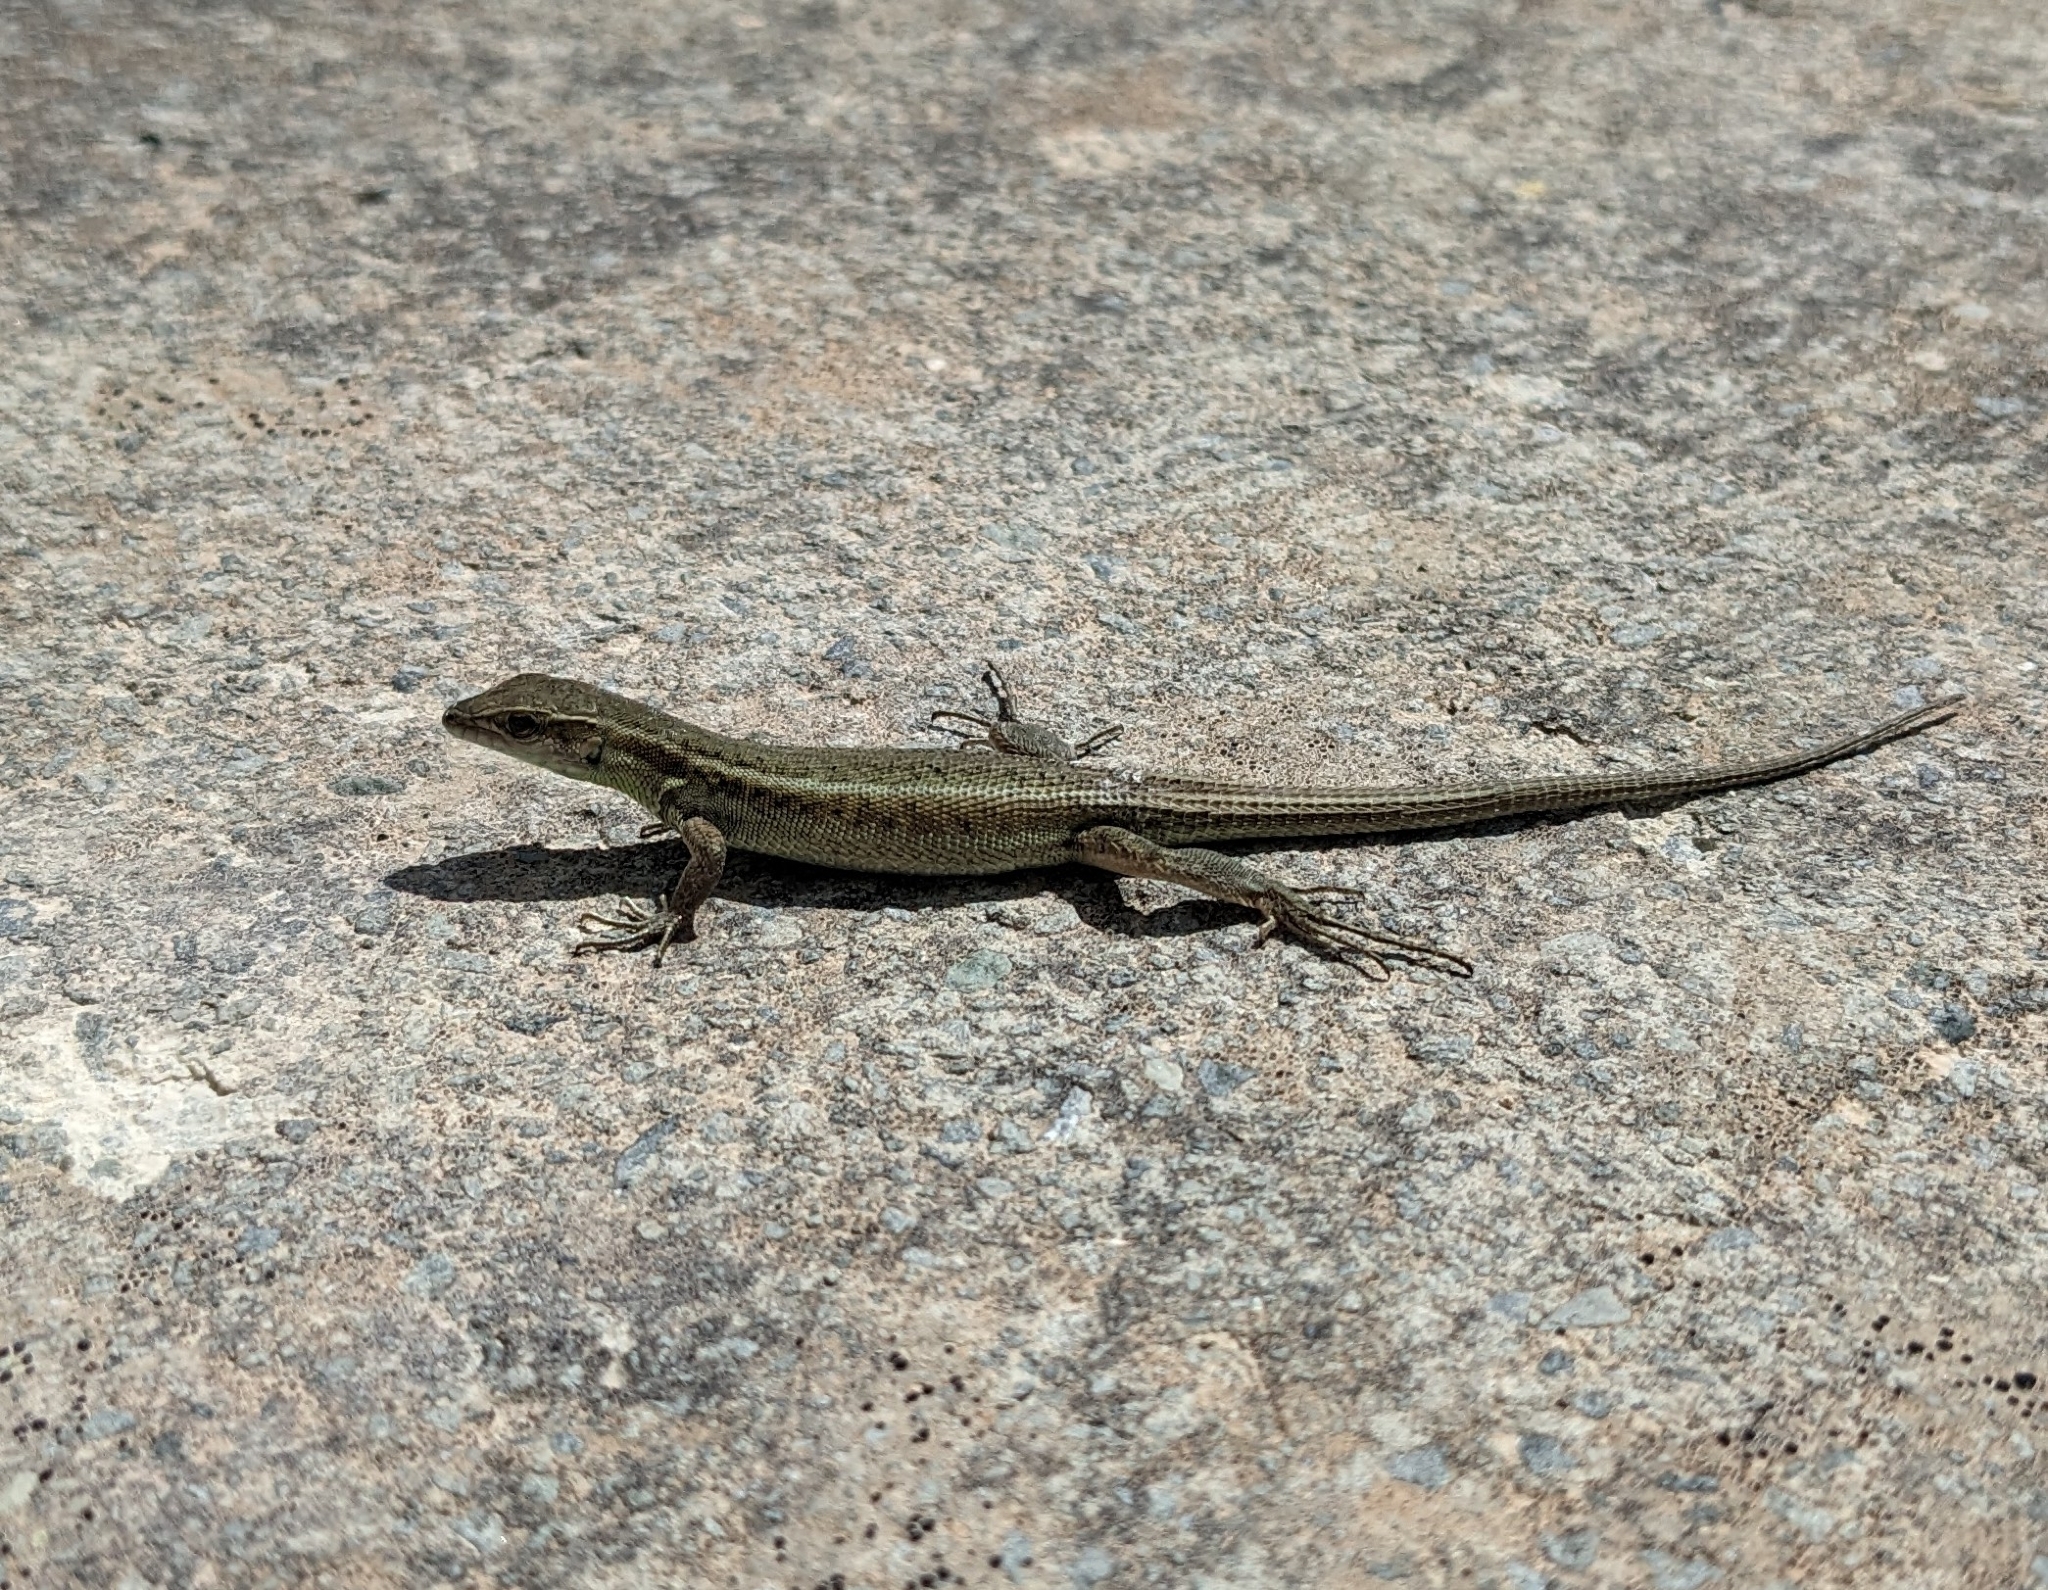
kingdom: Animalia
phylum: Chordata
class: Squamata
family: Lacertidae
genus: Ophisops
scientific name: Ophisops elegans
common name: Snake-eyed lizard
